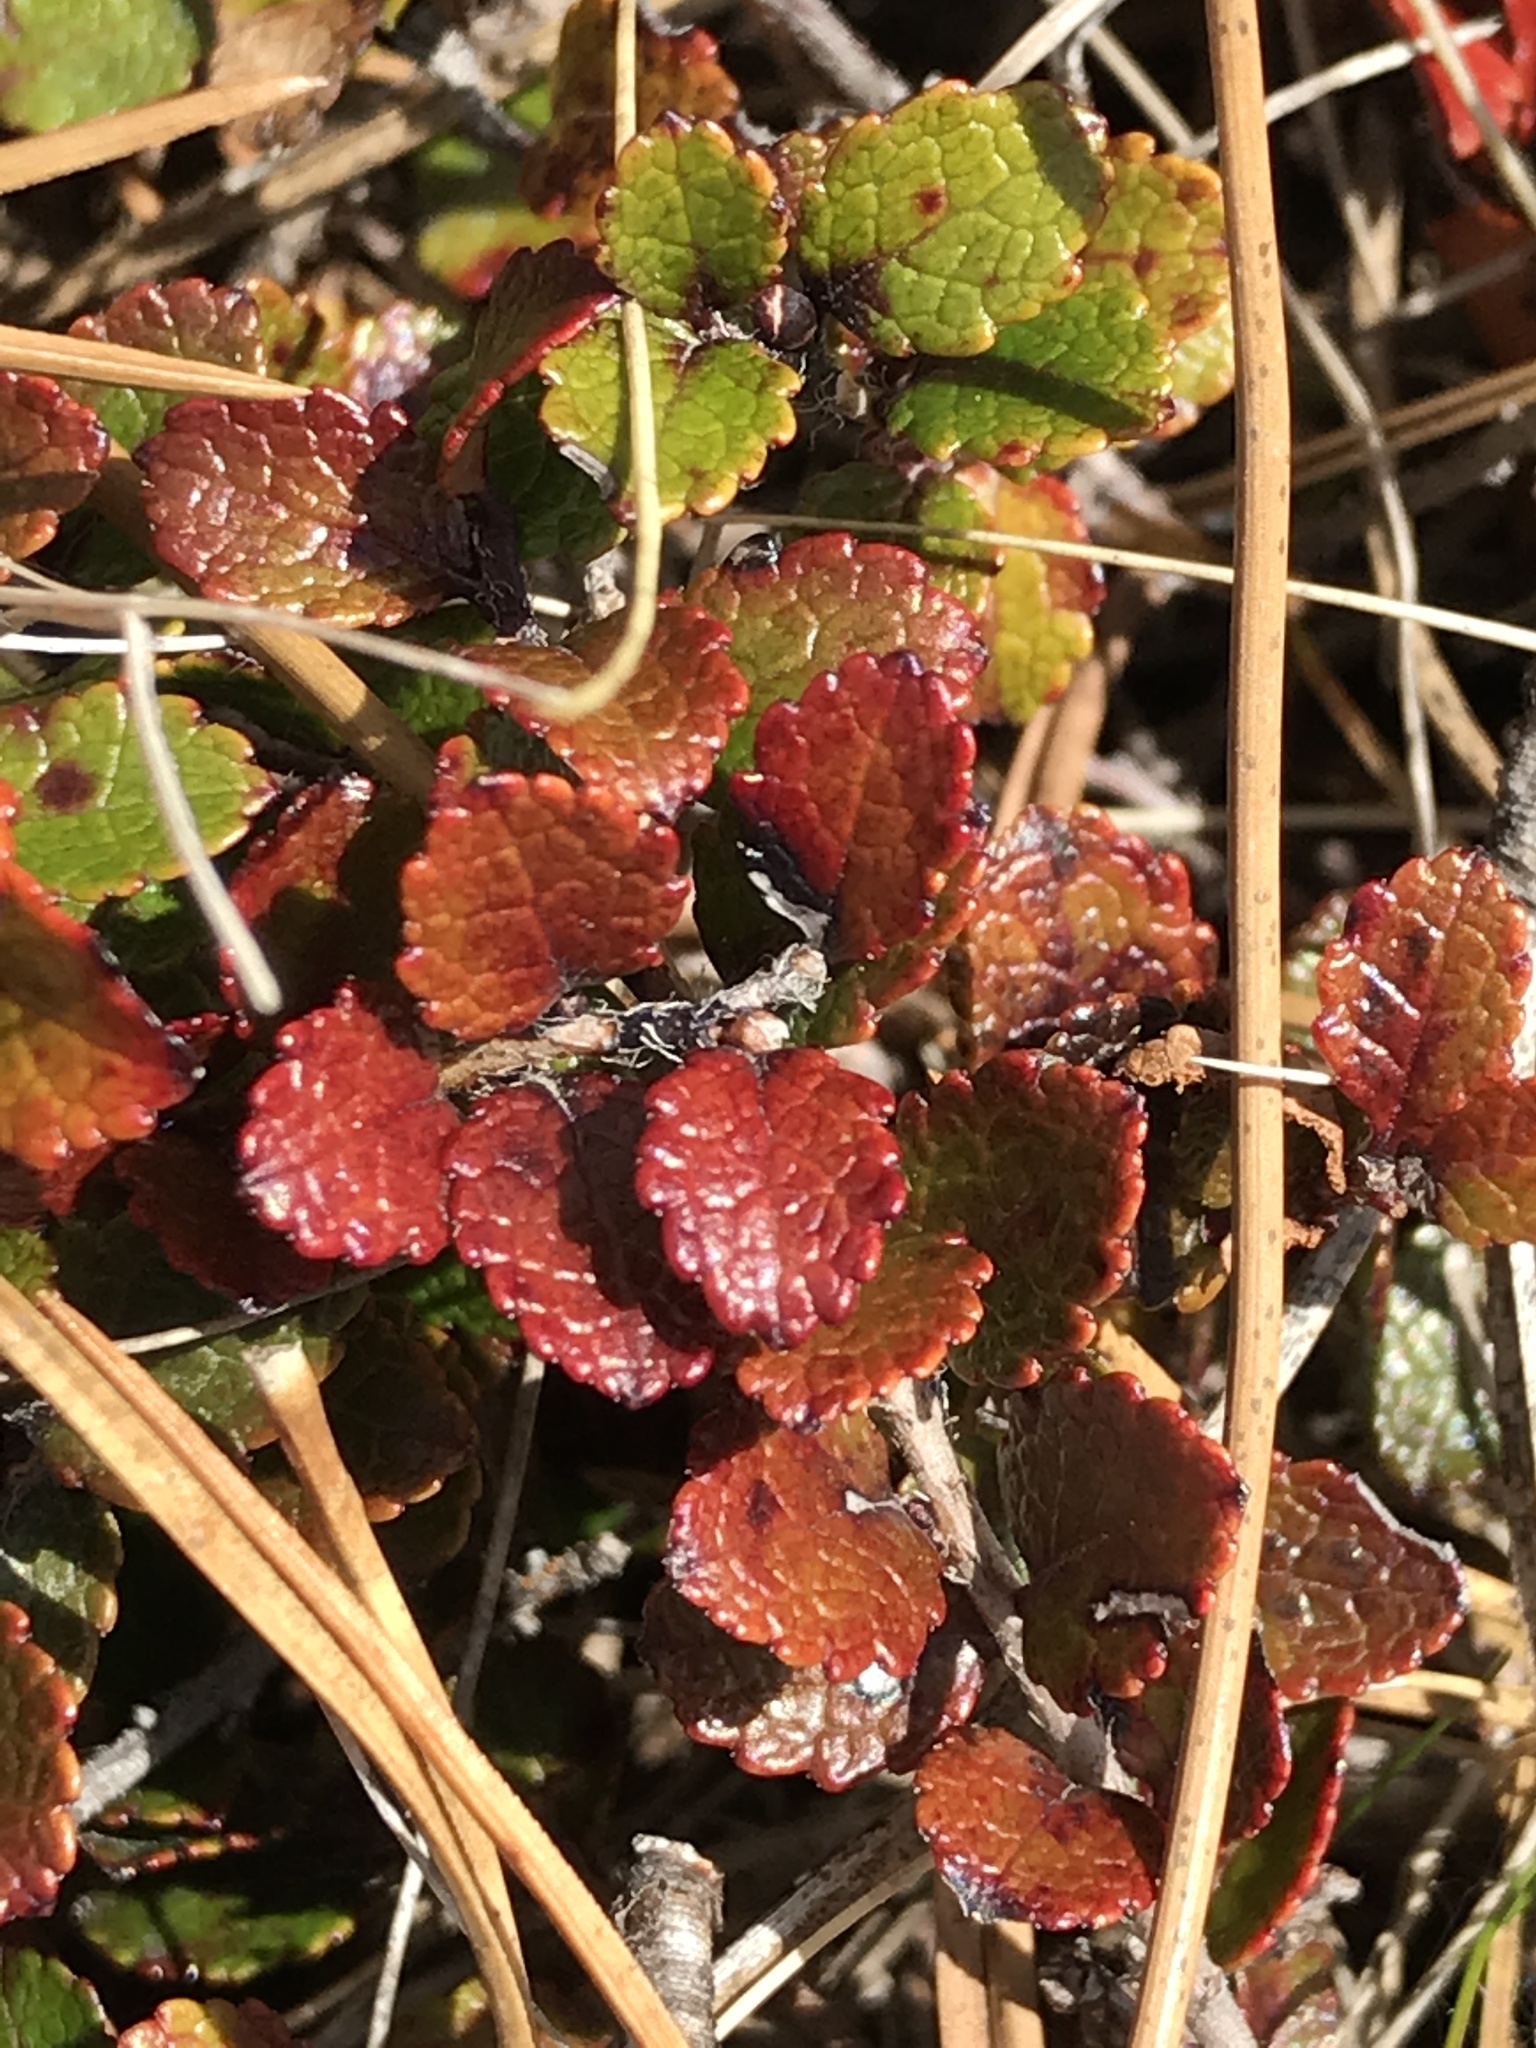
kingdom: Plantae
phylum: Tracheophyta
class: Magnoliopsida
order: Ericales
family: Ericaceae
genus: Gaultheria
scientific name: Gaultheria depressa
